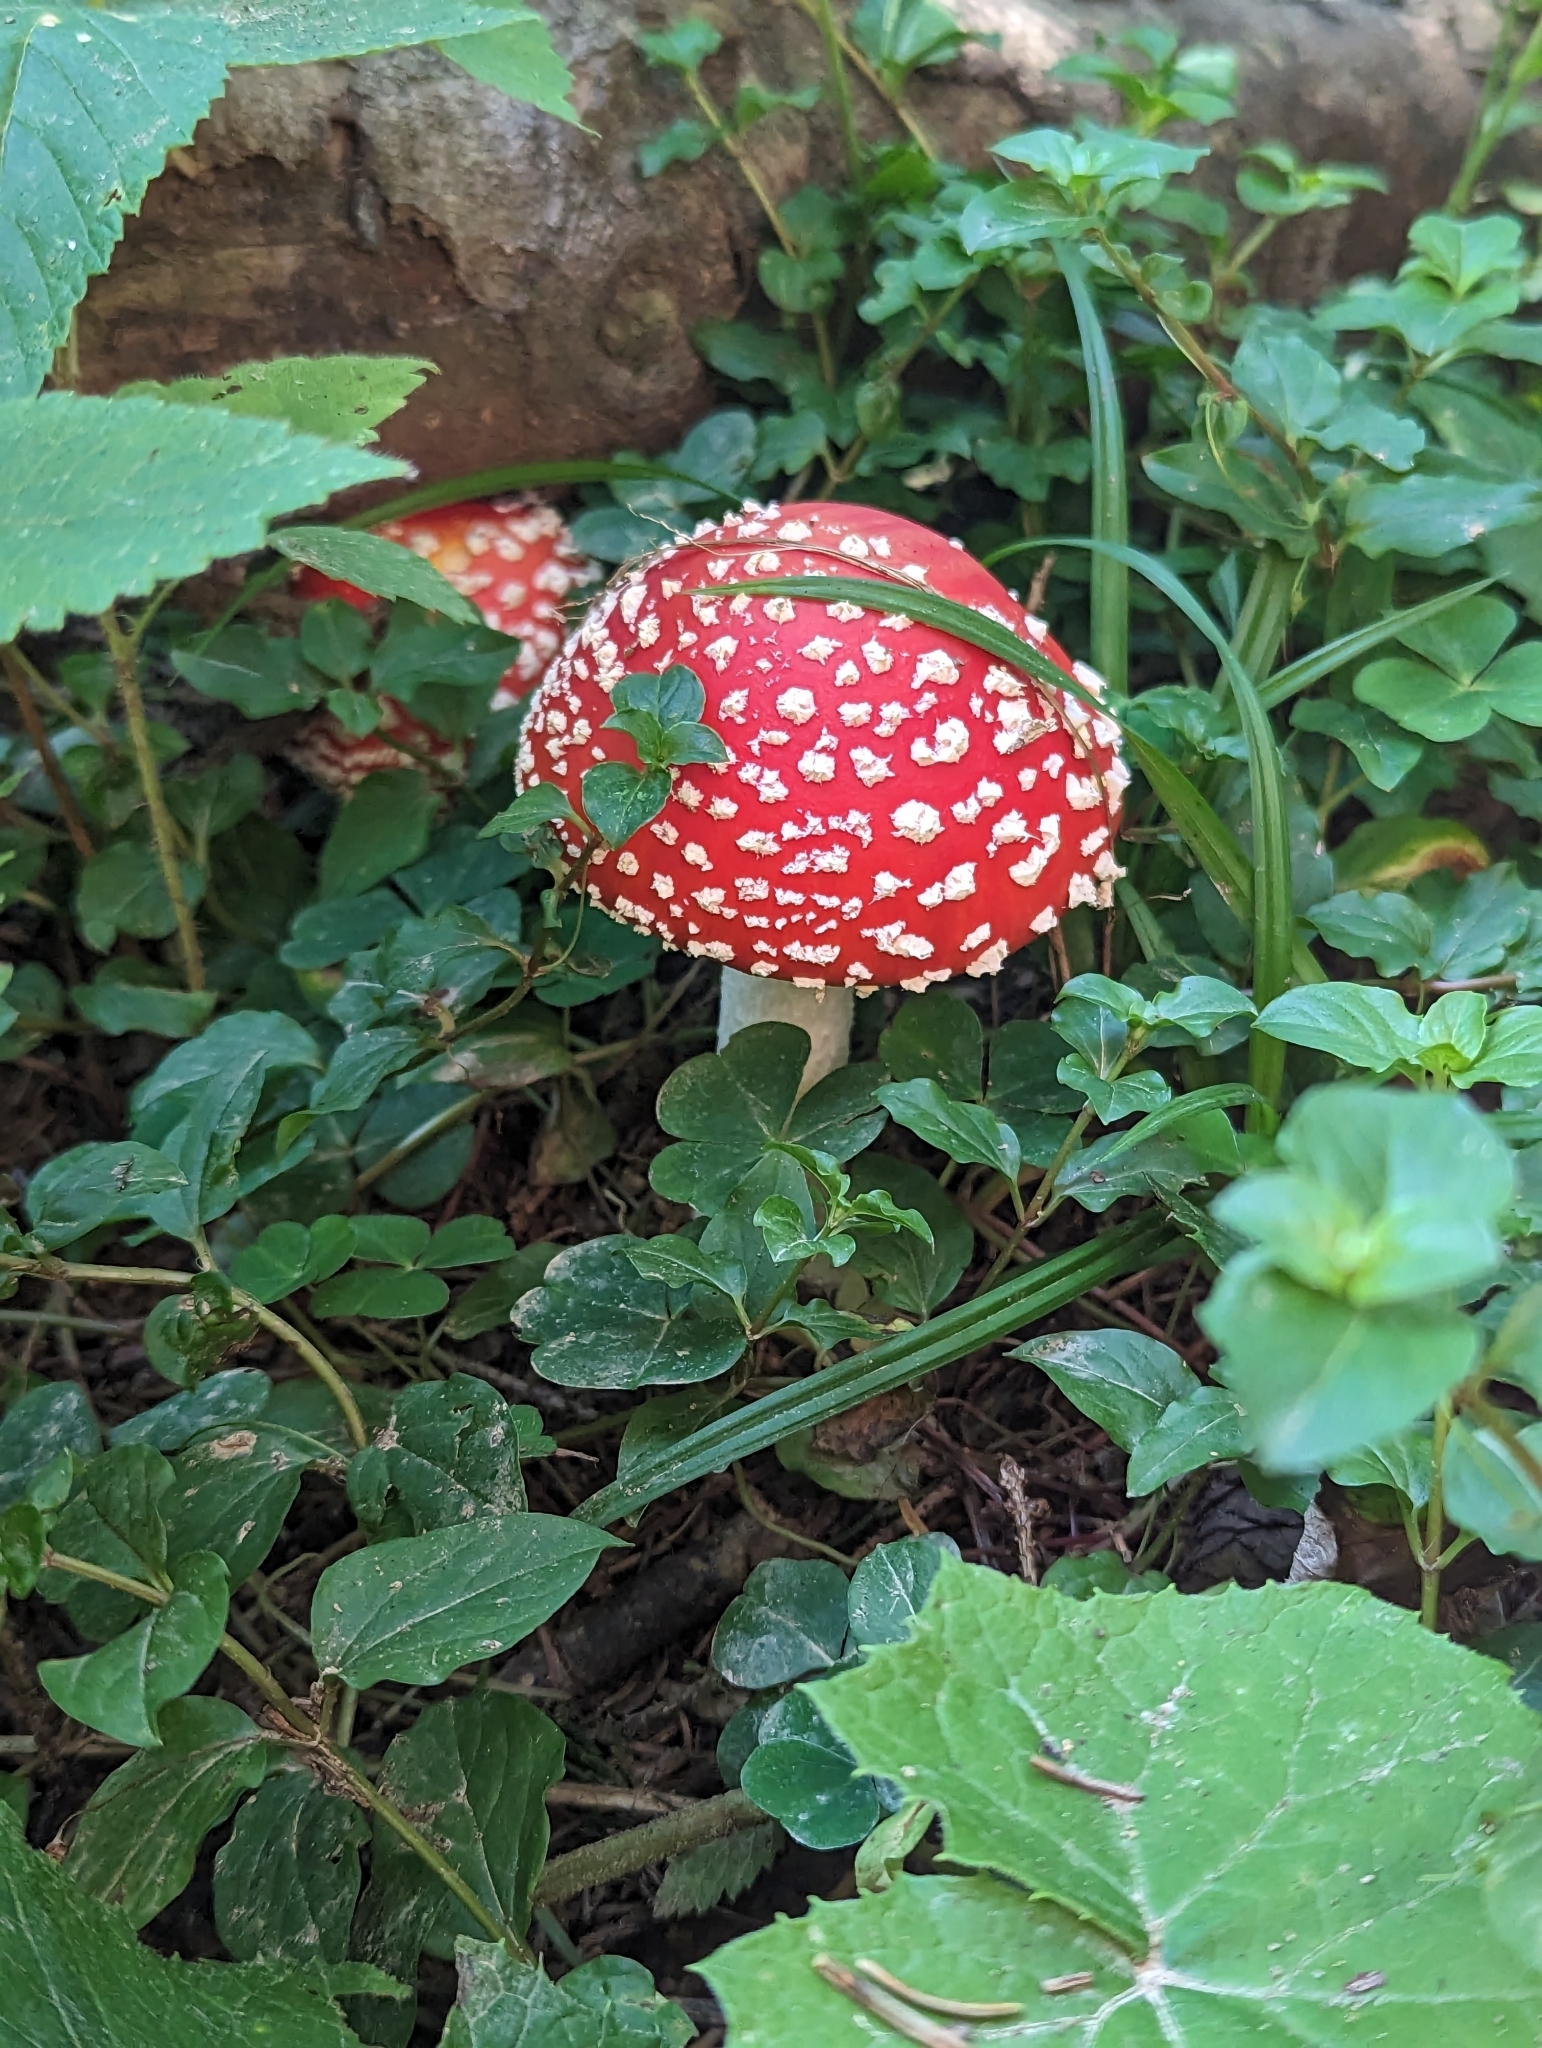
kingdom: Fungi
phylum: Basidiomycota
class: Agaricomycetes
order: Agaricales
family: Amanitaceae
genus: Amanita
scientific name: Amanita muscaria
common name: Fly agaric
